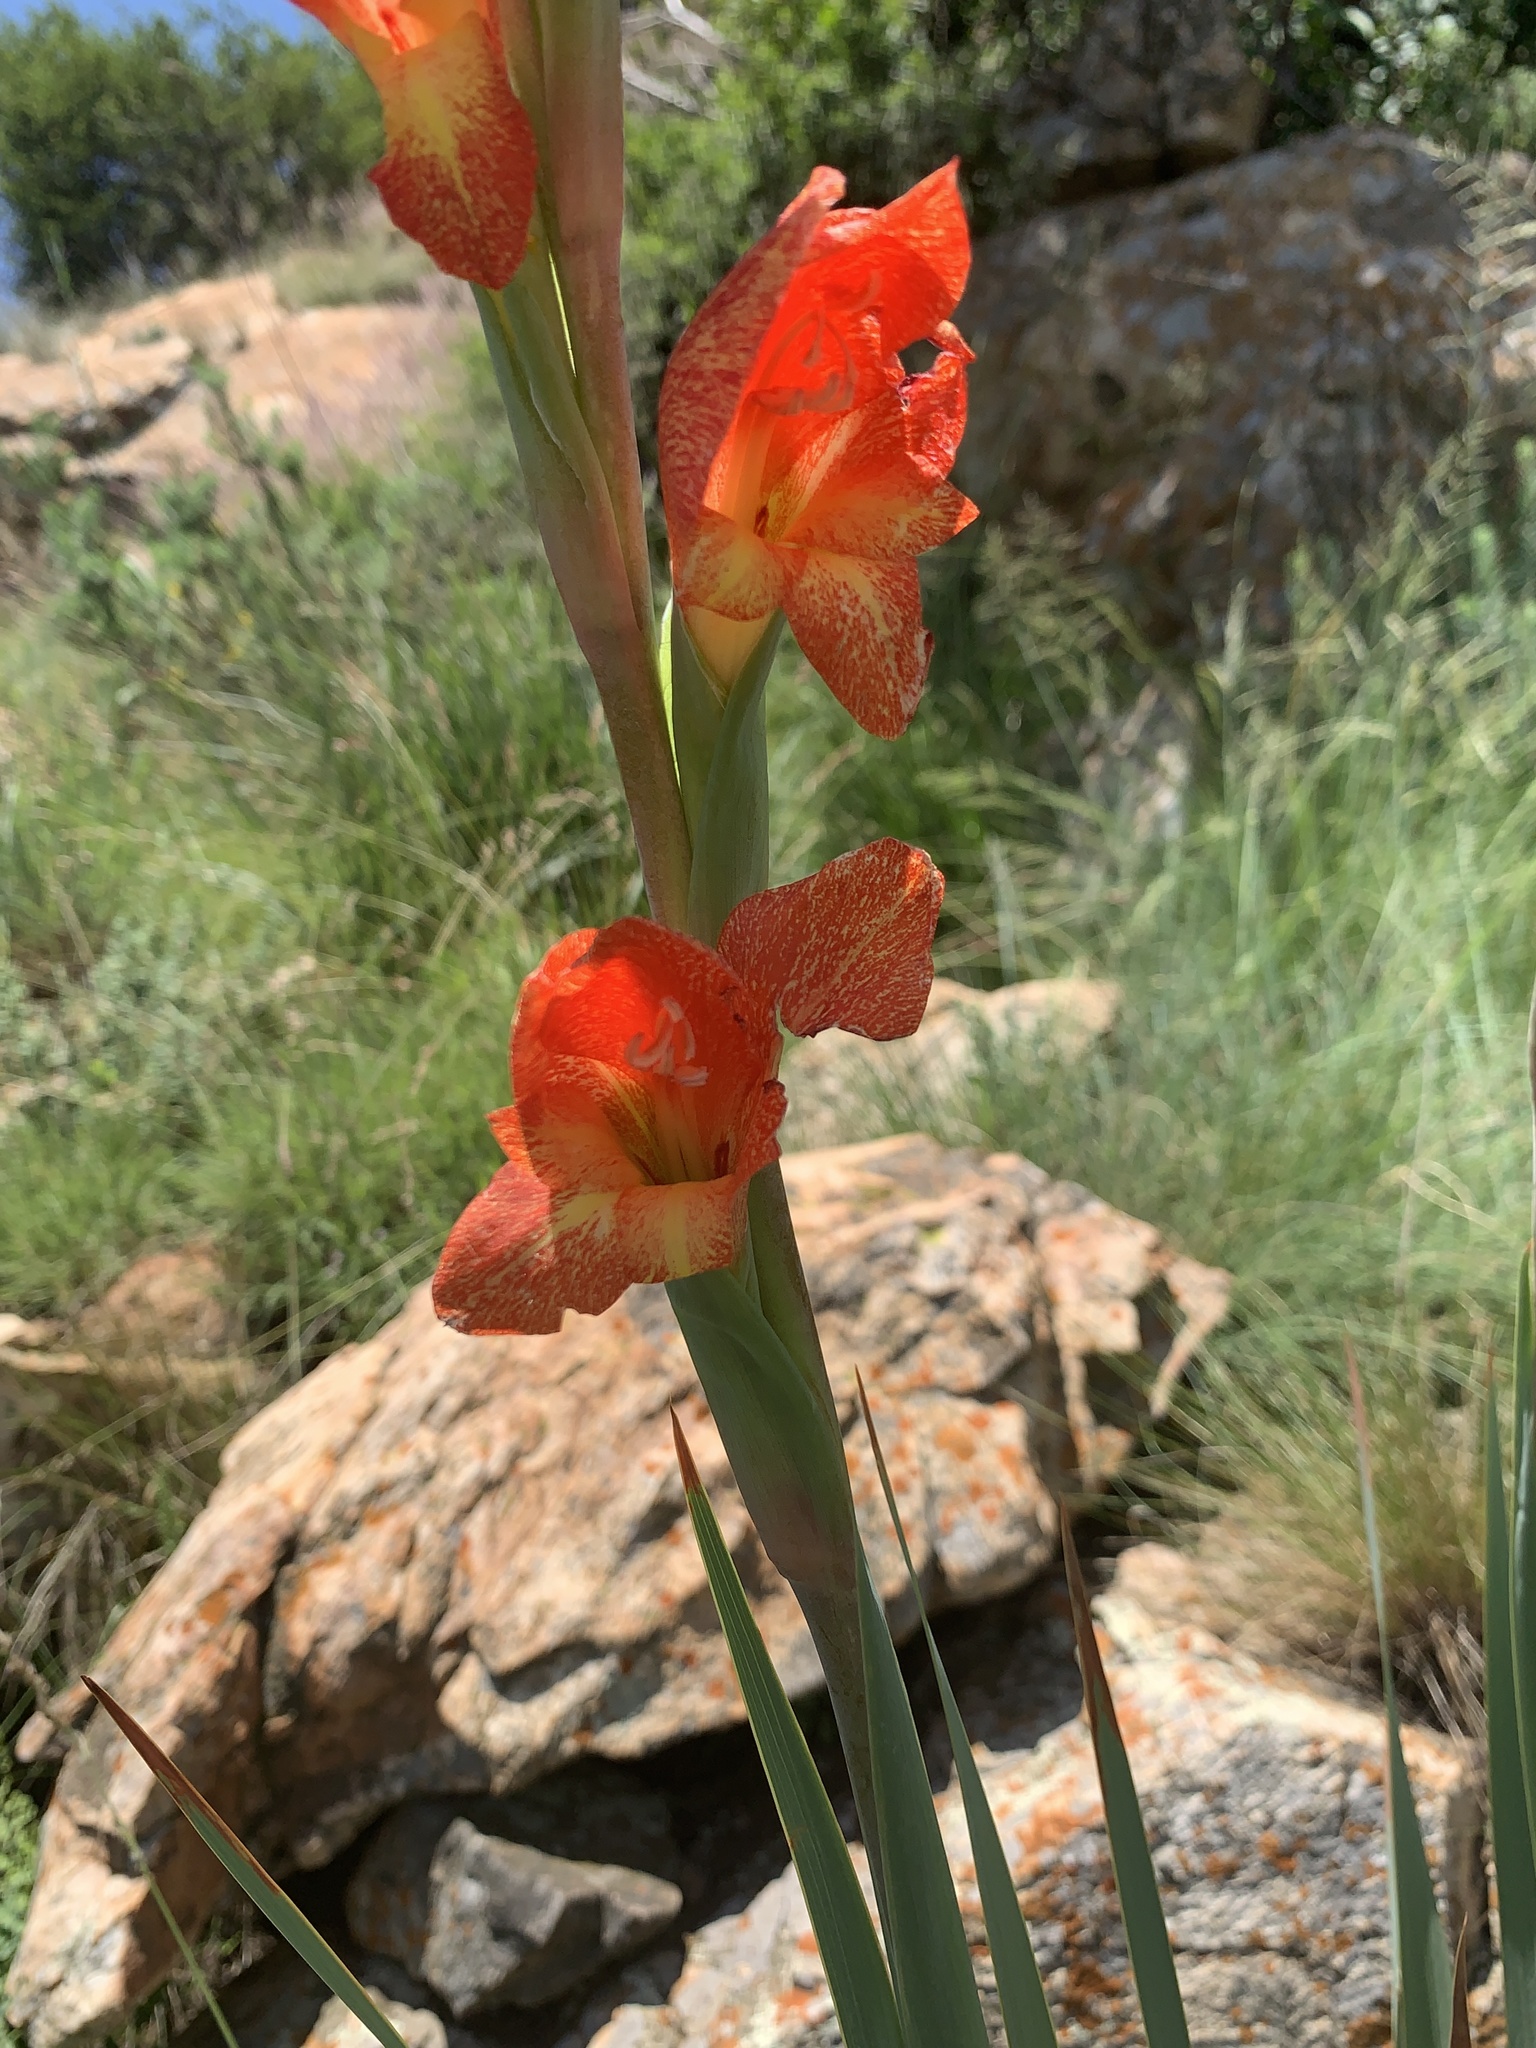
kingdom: Plantae
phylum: Tracheophyta
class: Liliopsida
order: Asparagales
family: Iridaceae
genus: Gladiolus
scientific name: Gladiolus dalenii
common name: Cornflag
